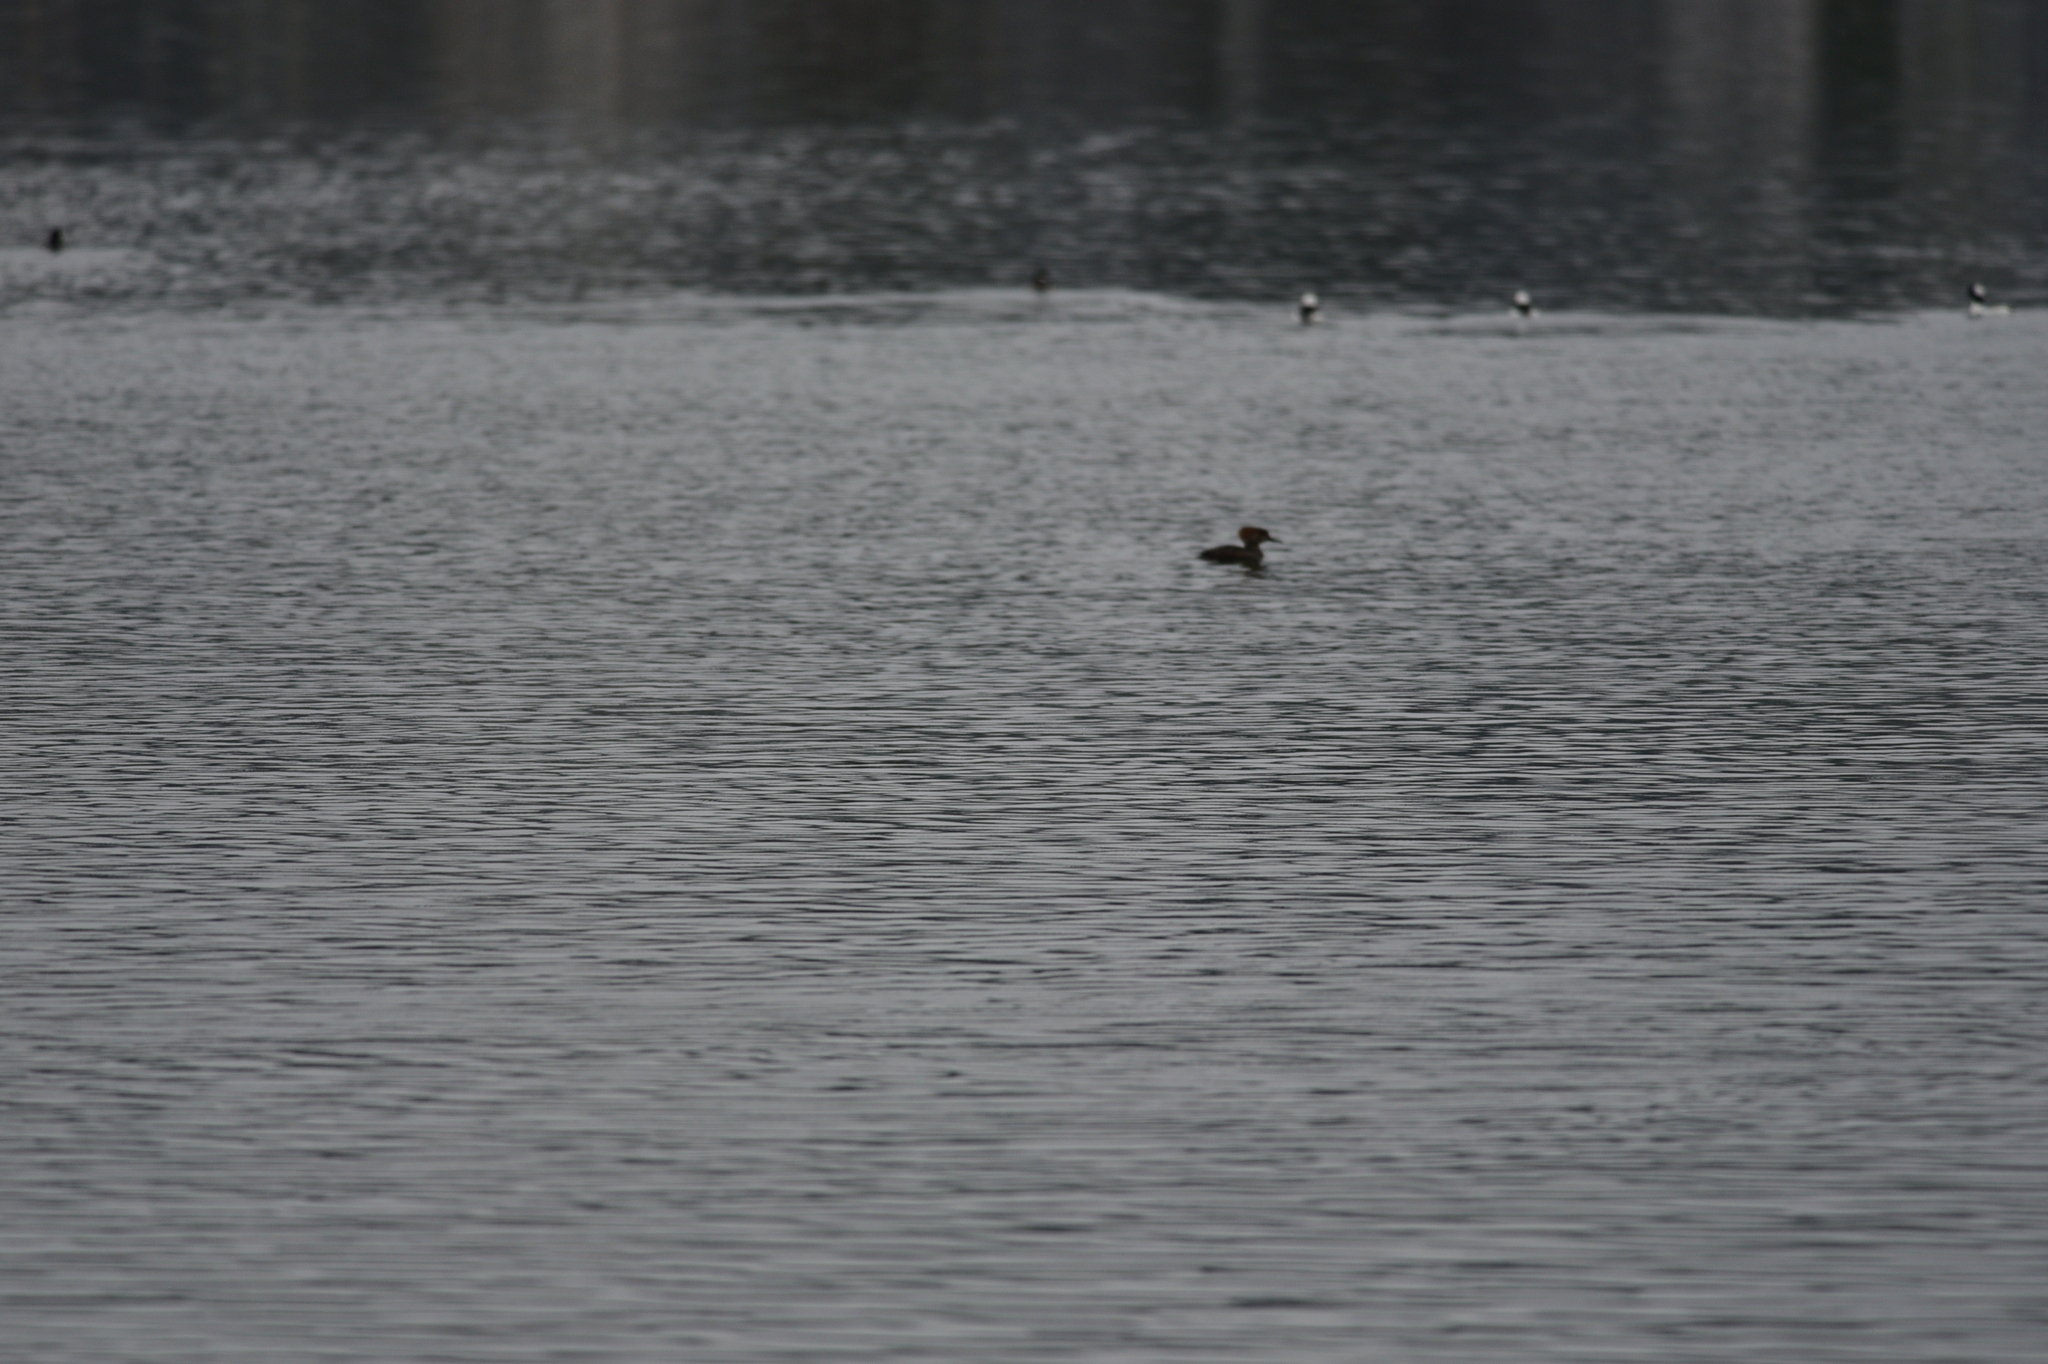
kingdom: Animalia
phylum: Chordata
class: Aves
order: Anseriformes
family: Anatidae
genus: Lophodytes
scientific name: Lophodytes cucullatus
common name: Hooded merganser
